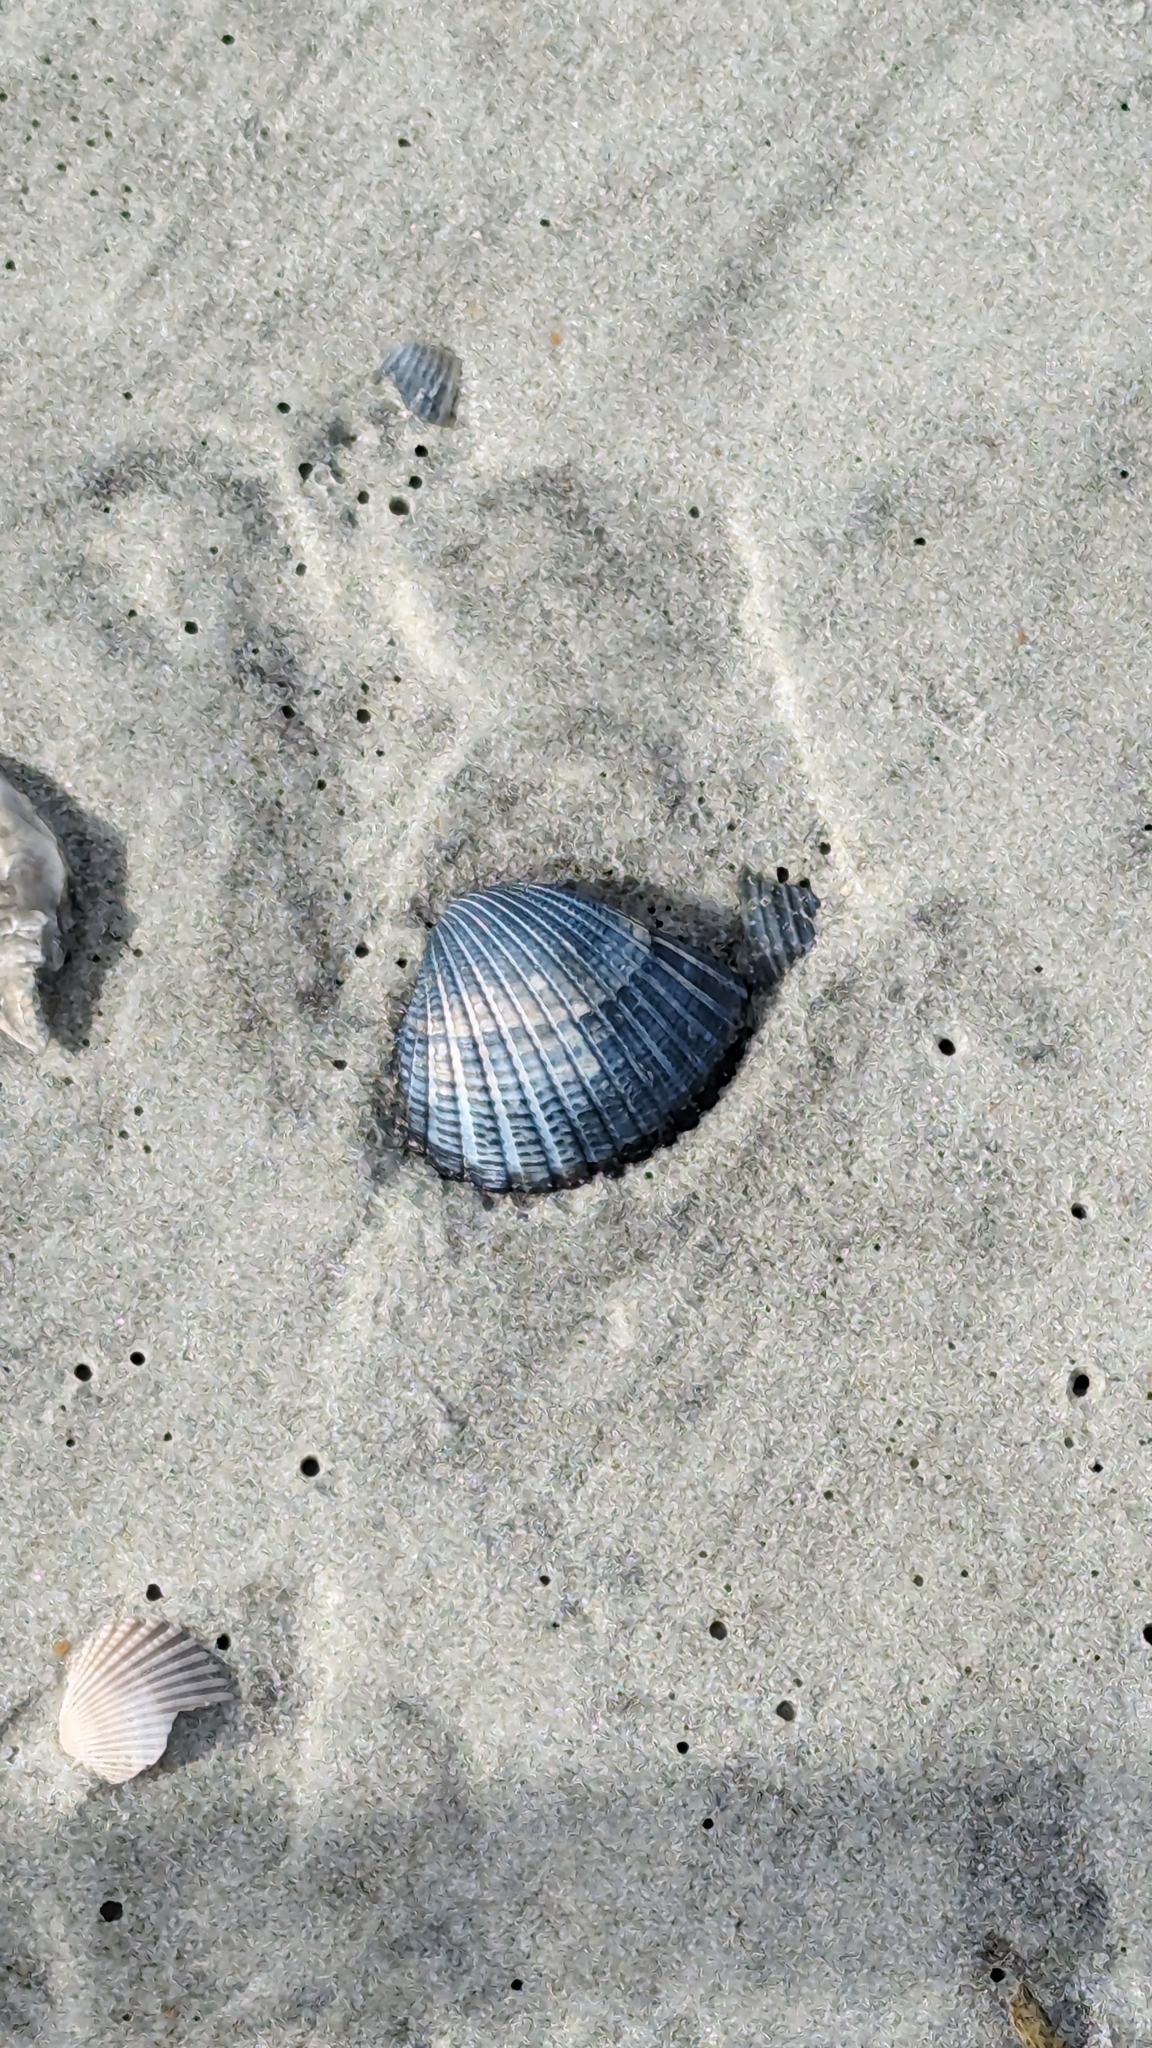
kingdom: Animalia
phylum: Mollusca
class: Bivalvia
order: Arcida
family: Arcidae
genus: Anadara
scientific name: Anadara brasiliana
